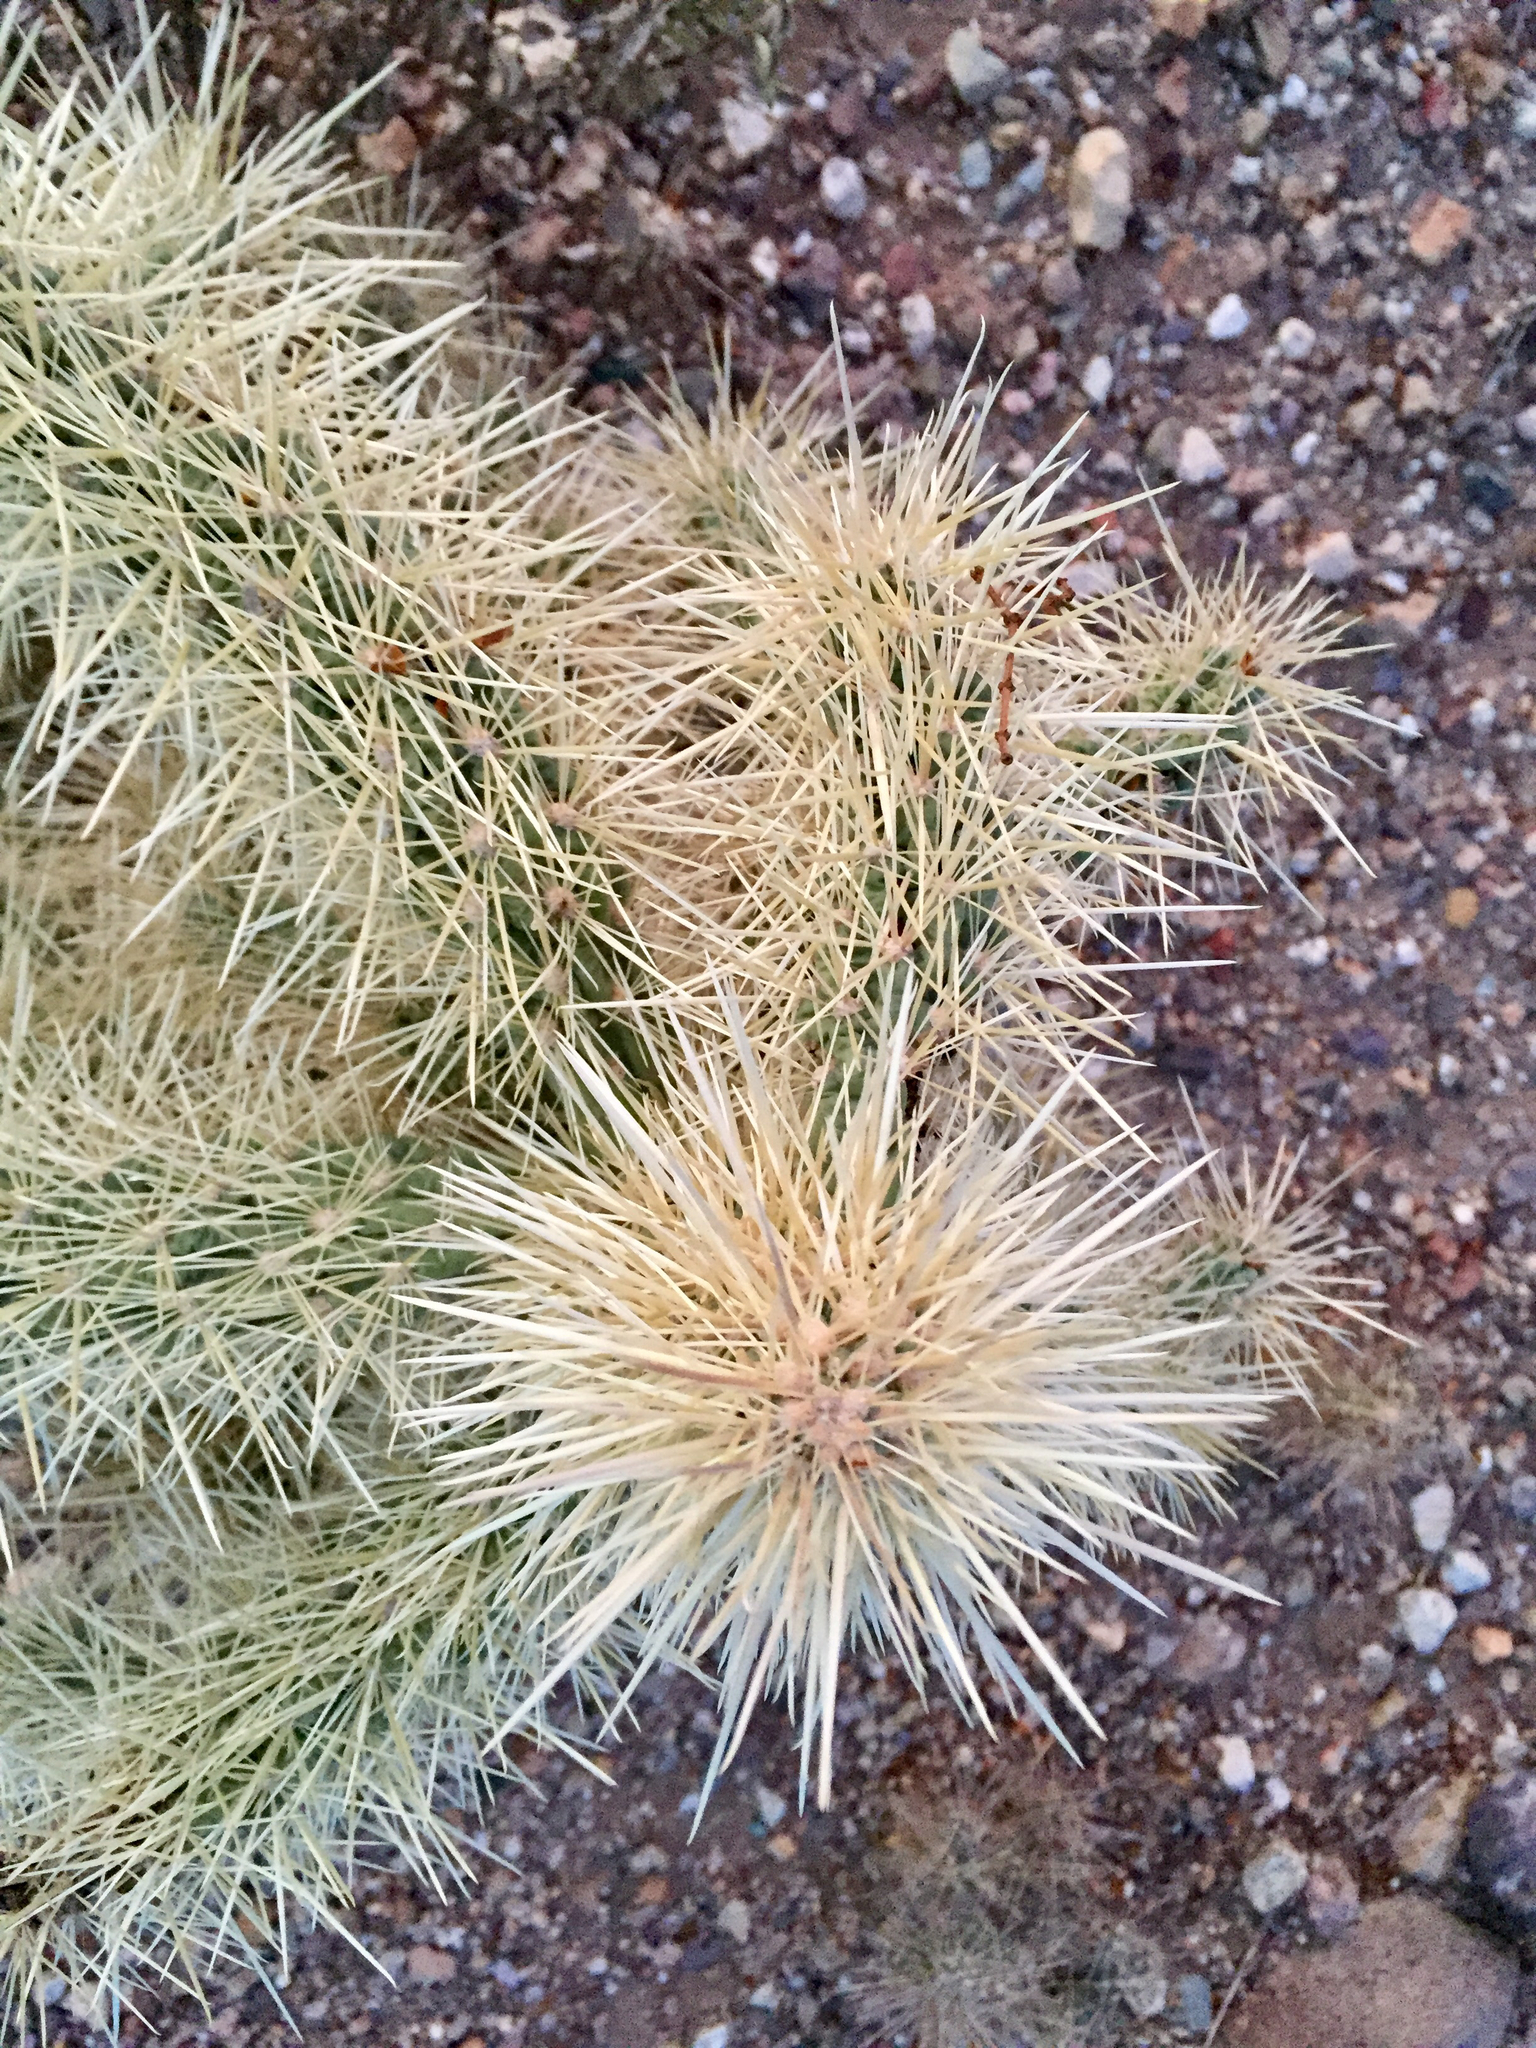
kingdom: Plantae
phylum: Tracheophyta
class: Magnoliopsida
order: Caryophyllales
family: Cactaceae
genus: Cylindropuntia
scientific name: Cylindropuntia fosbergii
